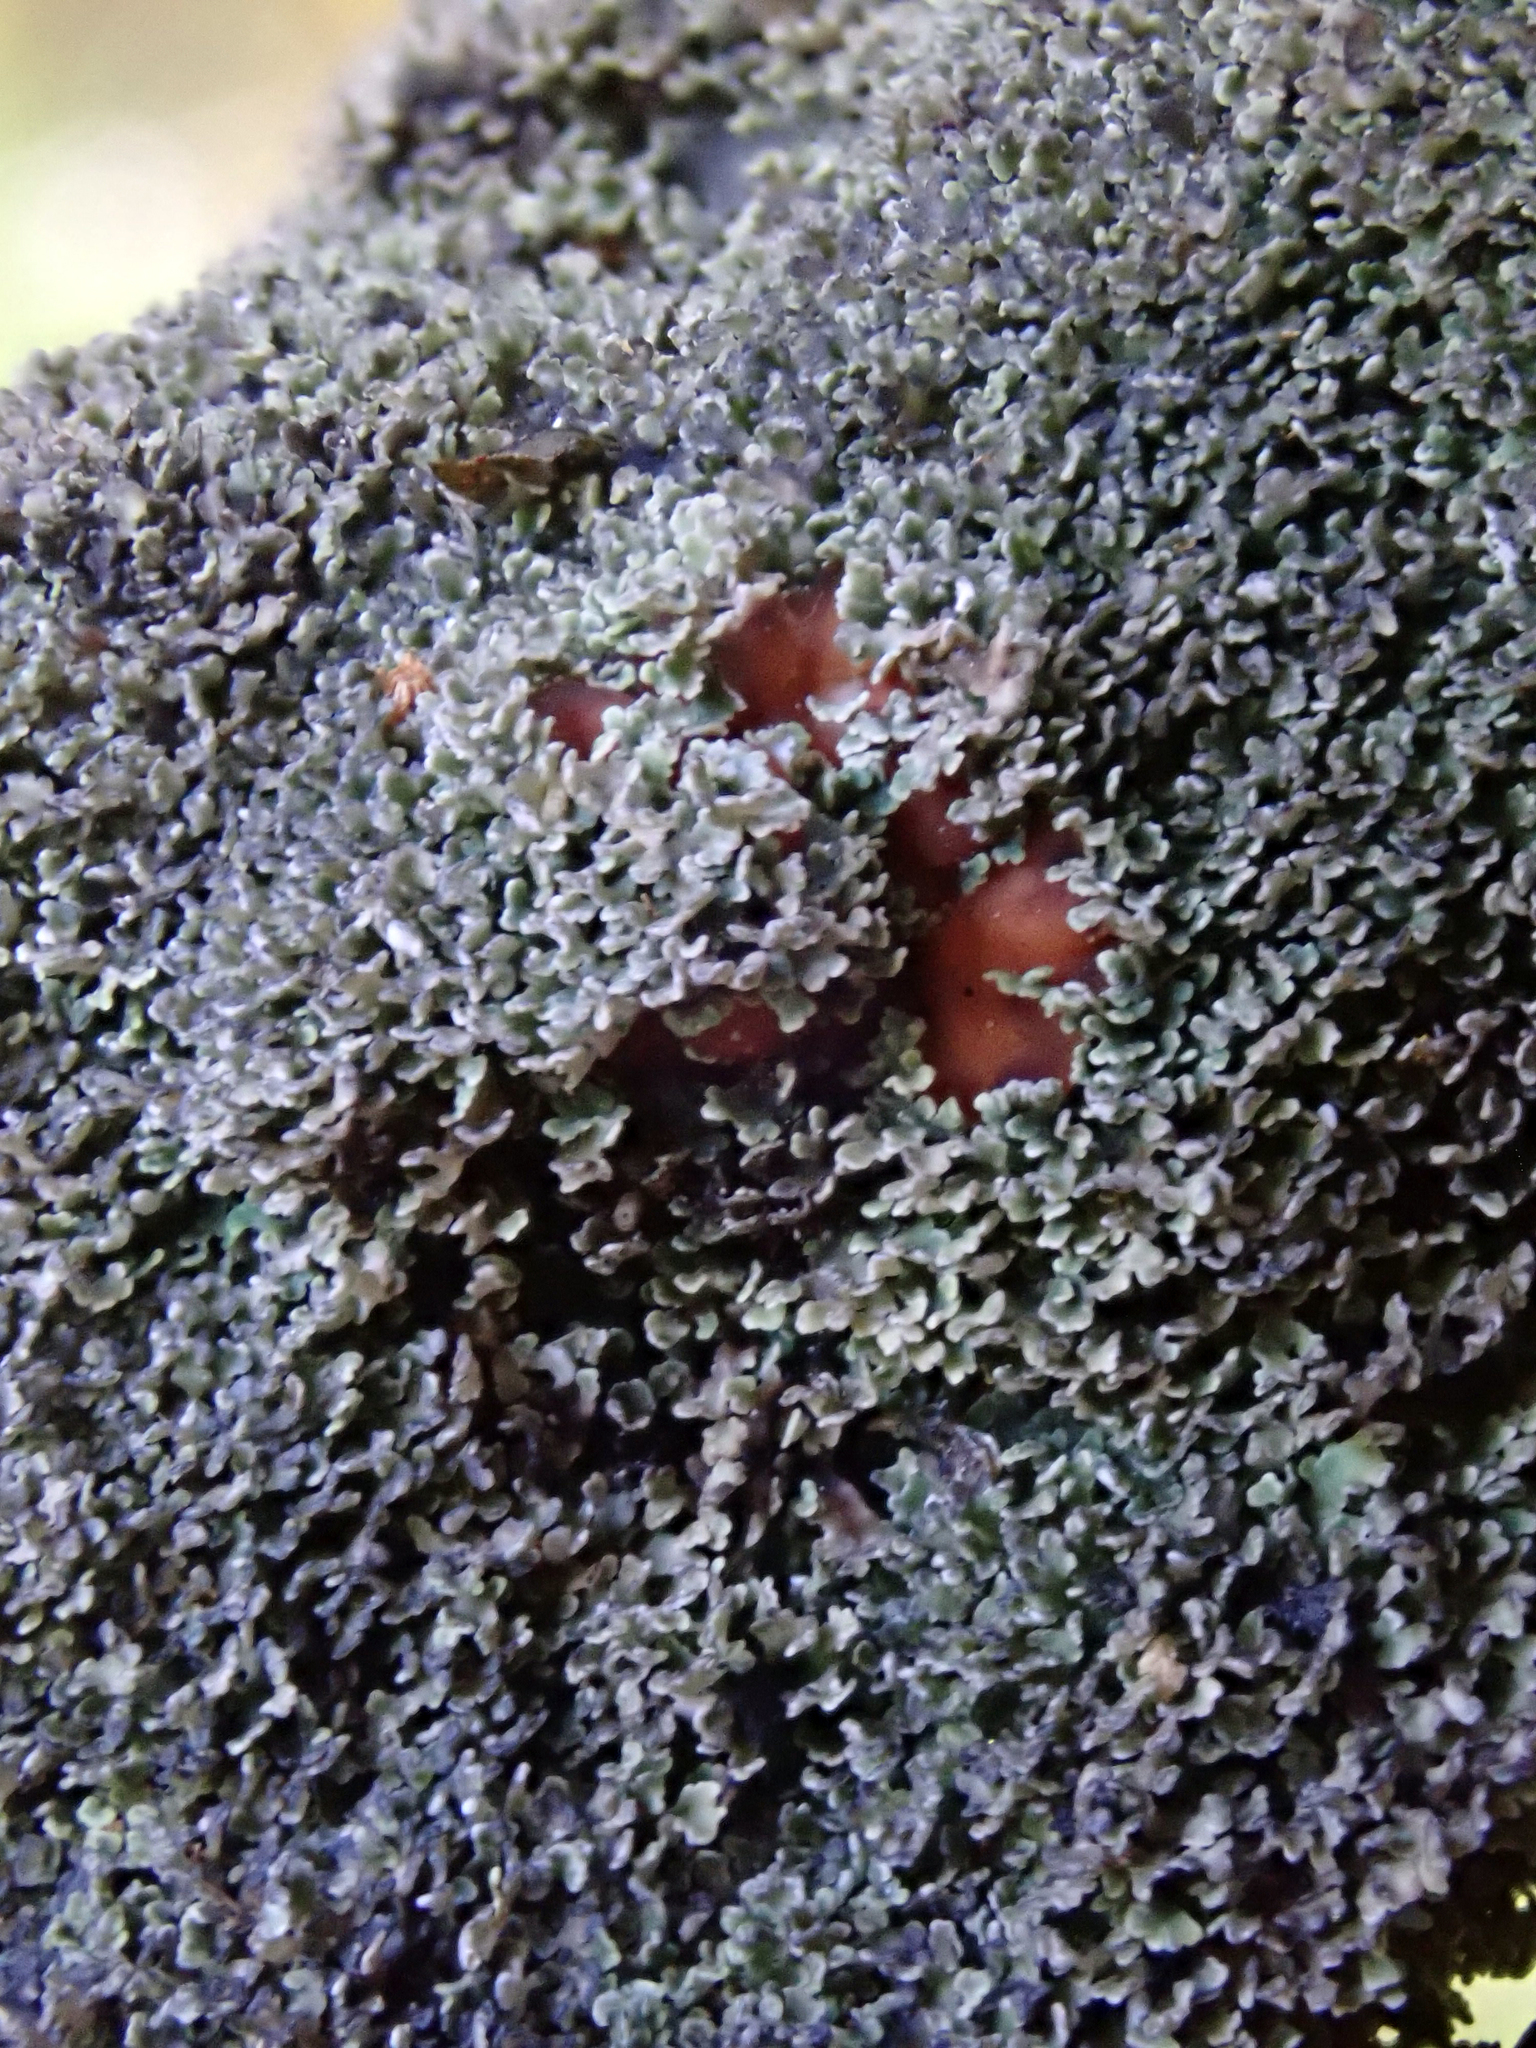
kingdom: Fungi
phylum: Ascomycota
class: Lecanoromycetes
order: Peltigerales
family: Pannariaceae
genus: Pannaria
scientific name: Pannaria delicata
